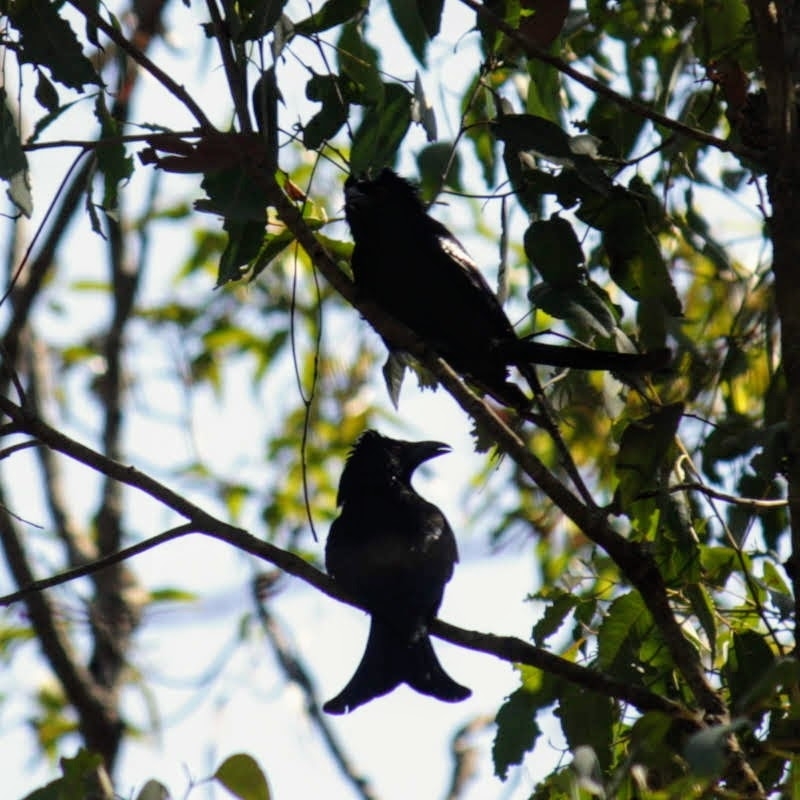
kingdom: Animalia
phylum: Chordata
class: Aves
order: Passeriformes
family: Dicruridae
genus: Dicrurus
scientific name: Dicrurus bracteatus
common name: Spangled drongo
